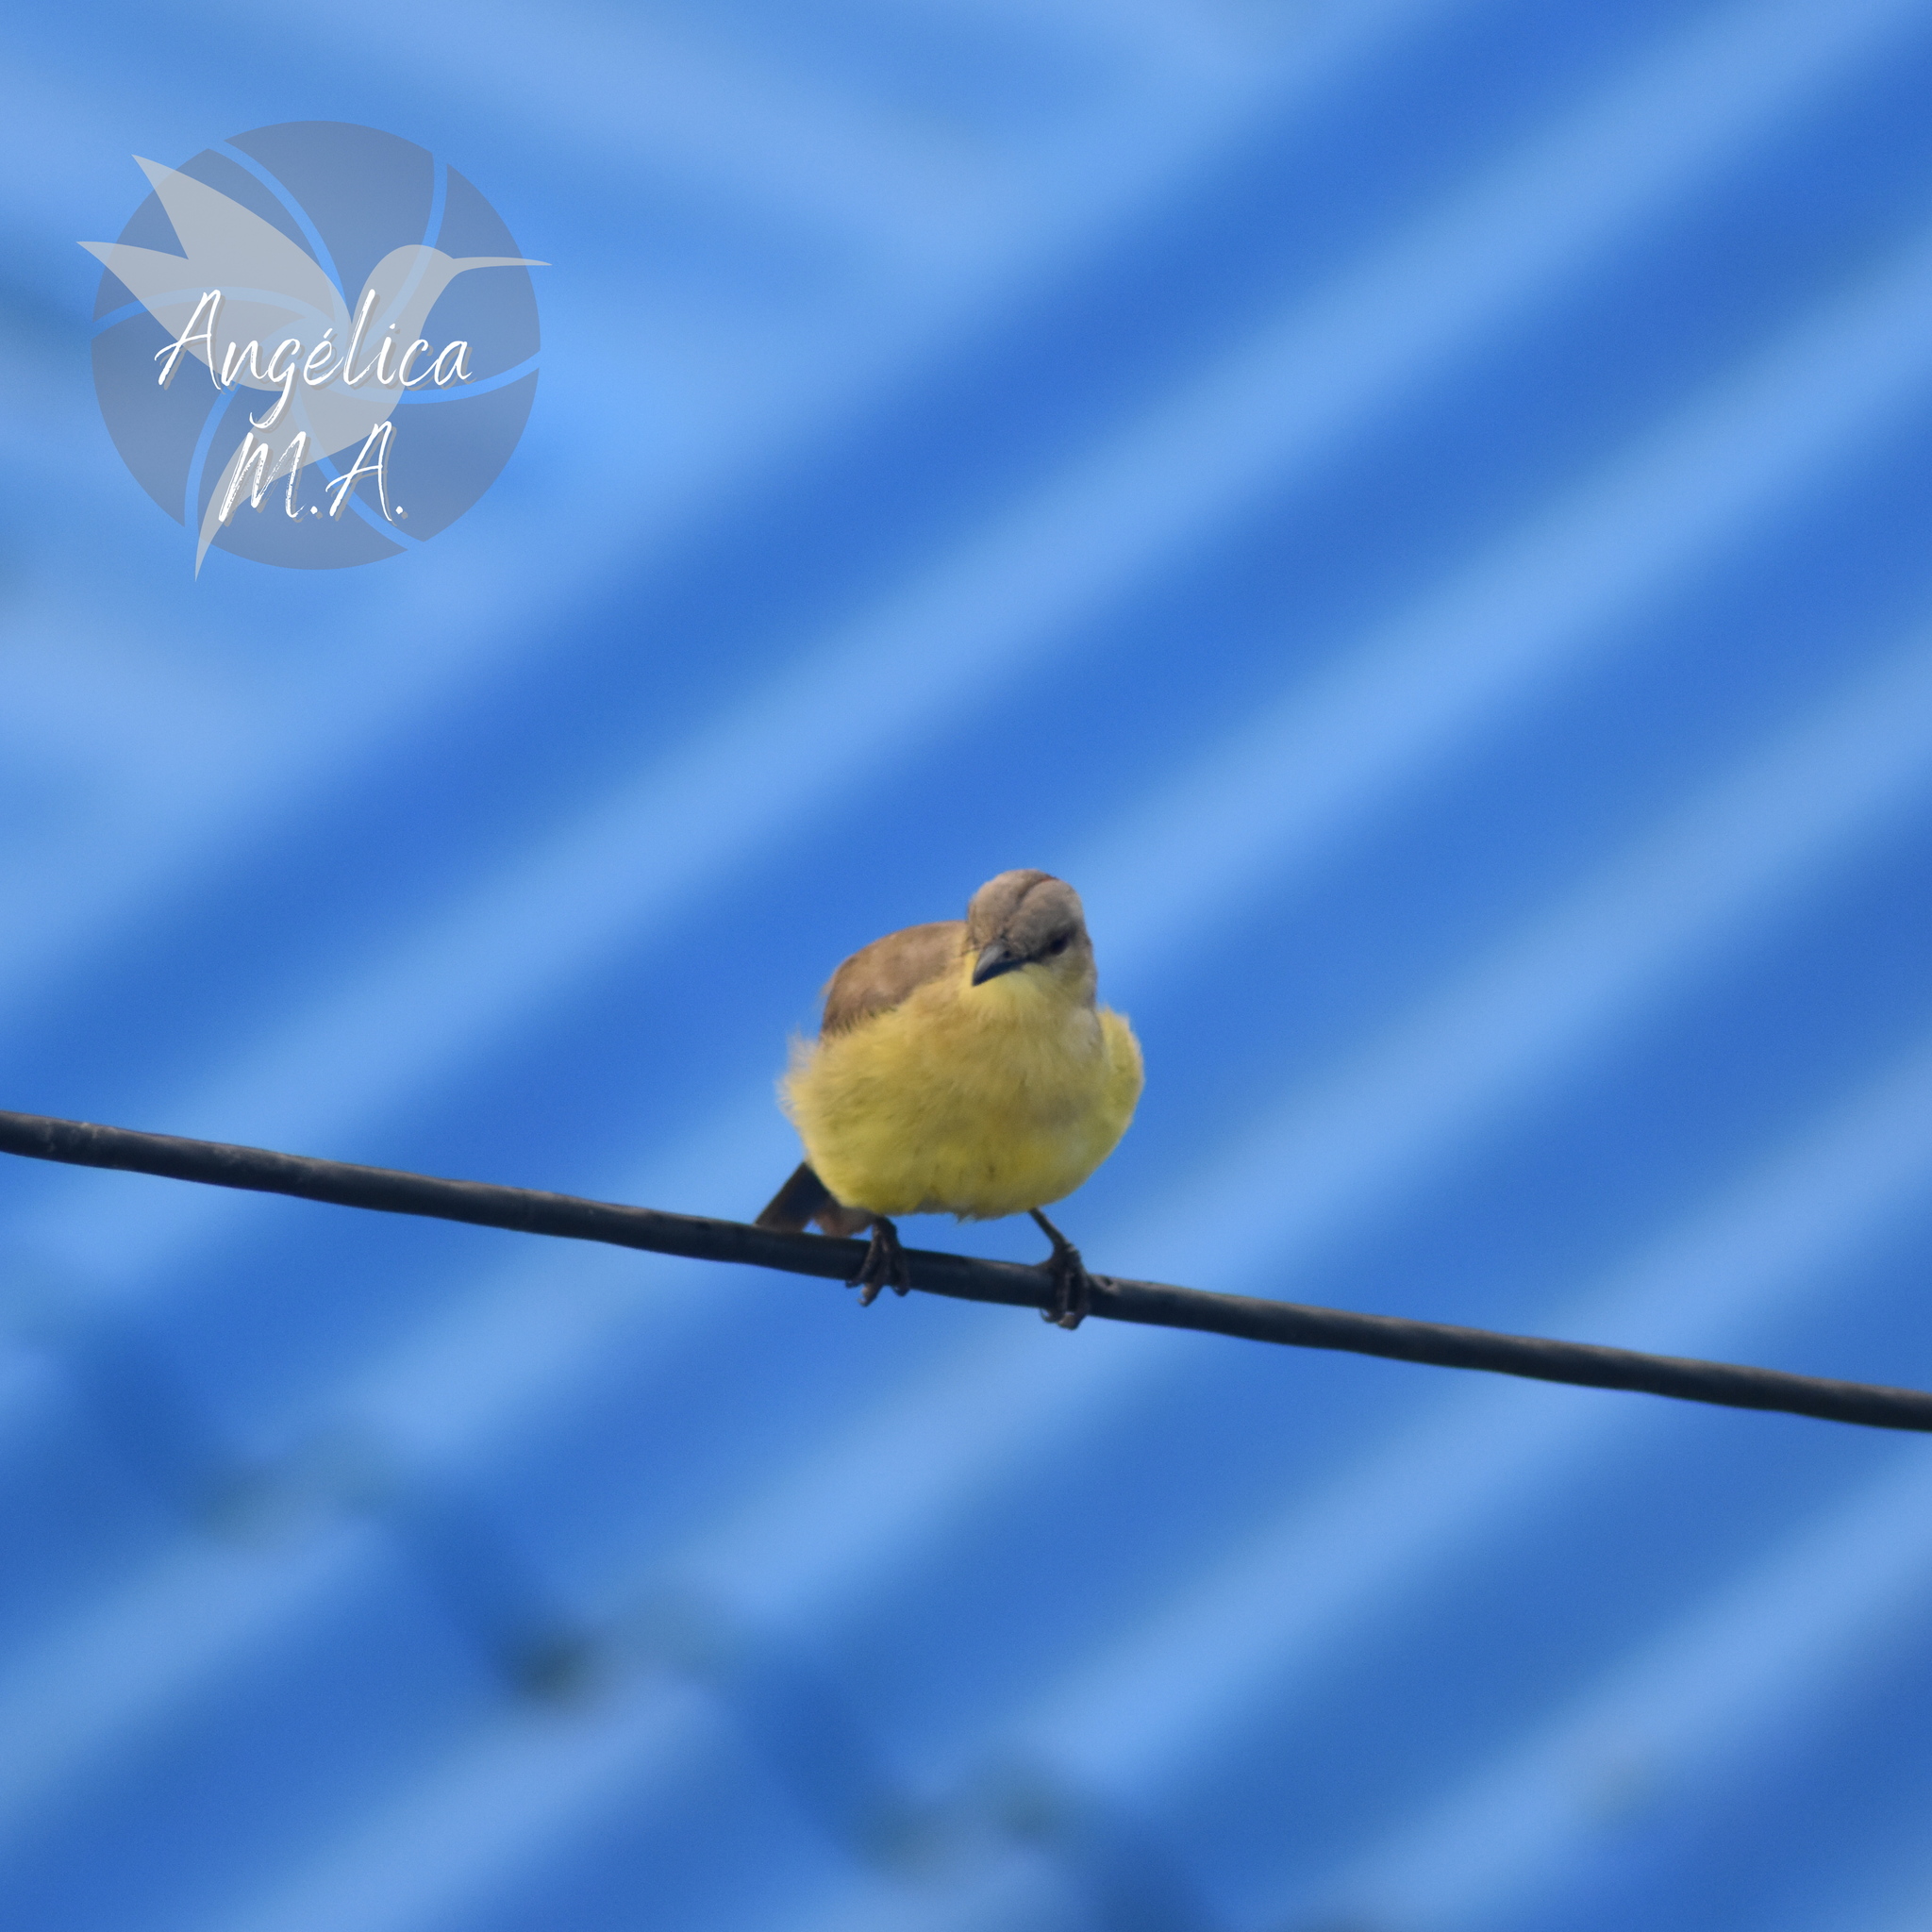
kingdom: Animalia
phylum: Chordata
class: Aves
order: Passeriformes
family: Tyrannidae
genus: Machetornis
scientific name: Machetornis rixosa
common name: Cattle tyrant
